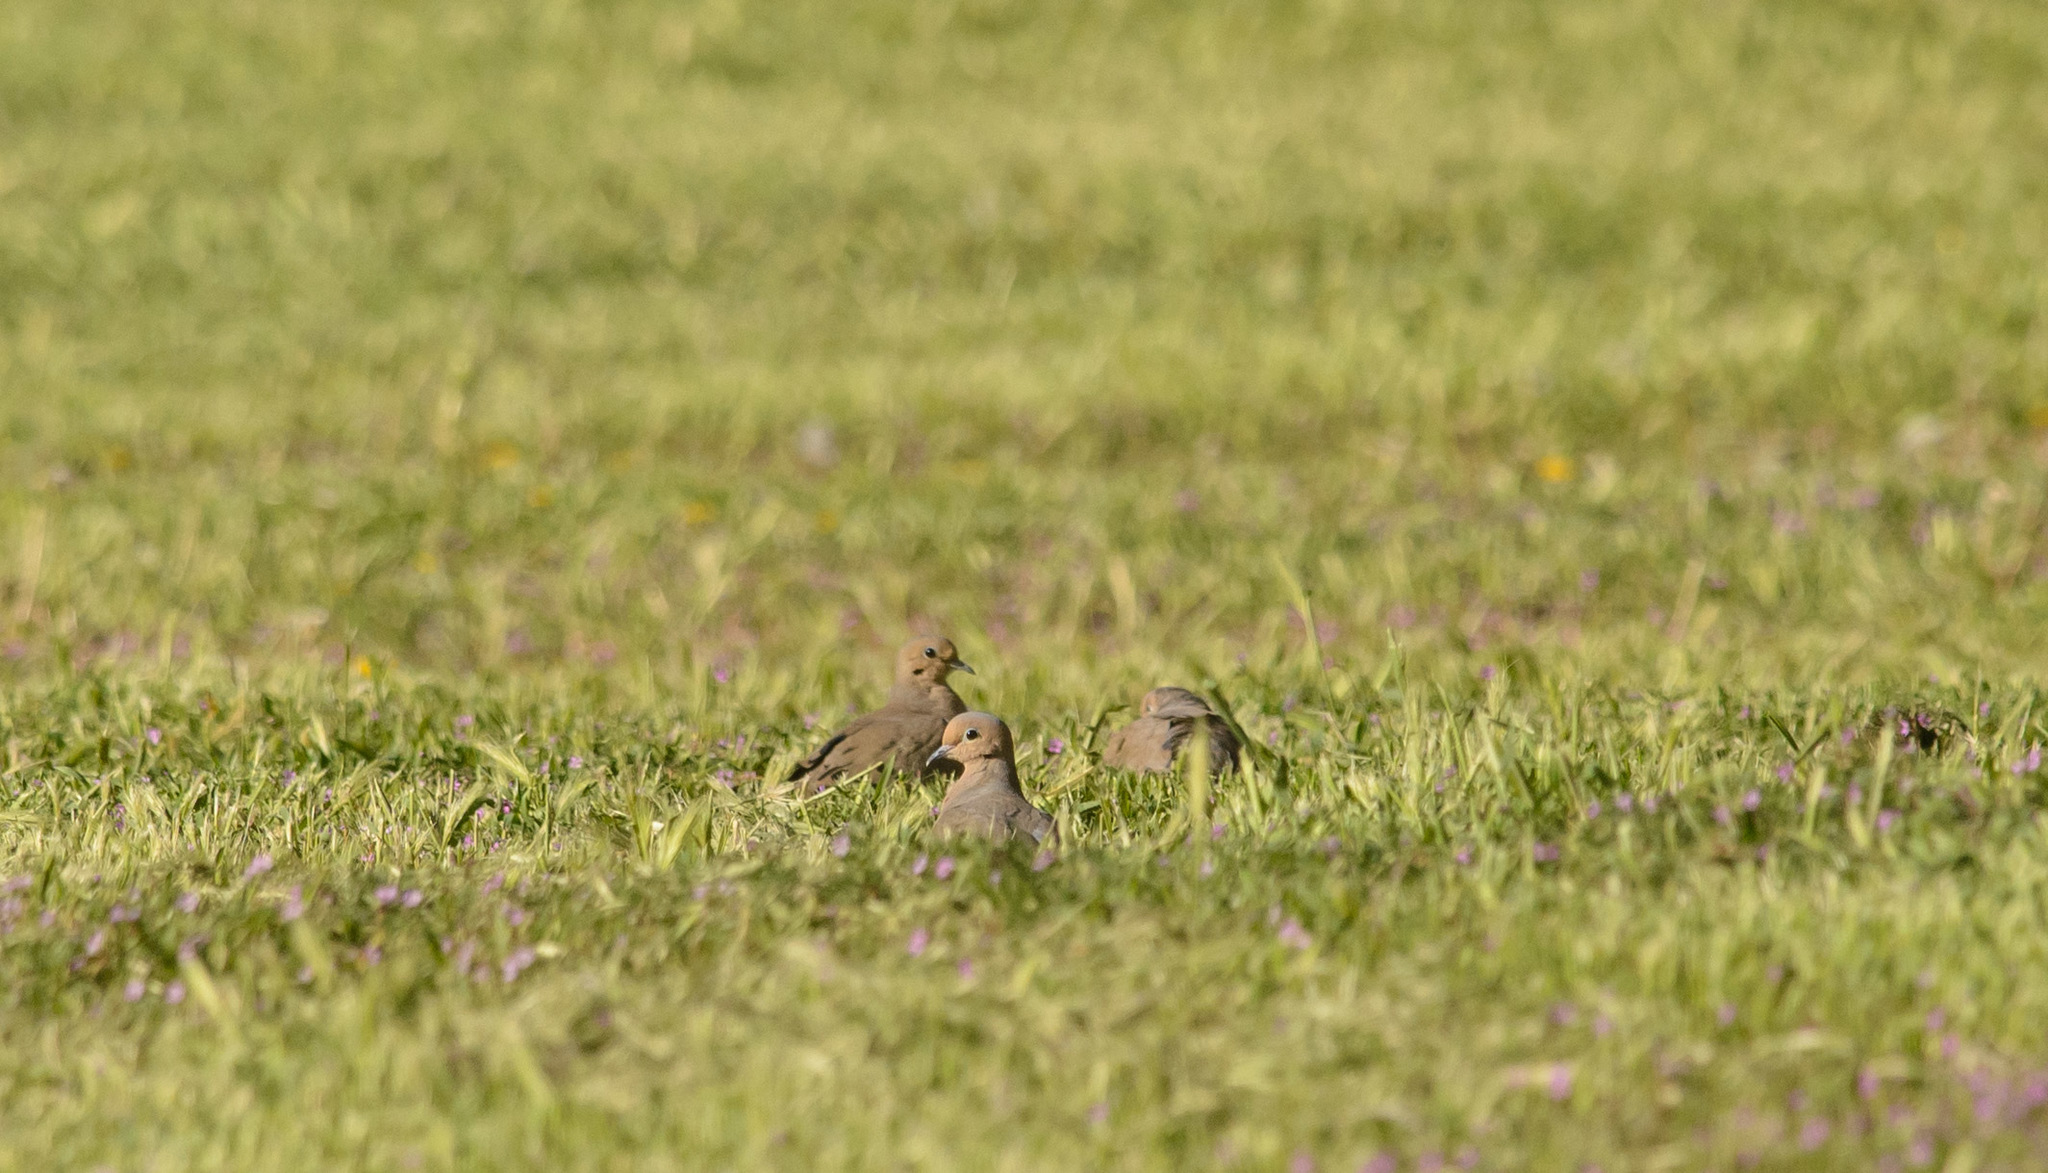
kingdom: Animalia
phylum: Chordata
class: Aves
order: Columbiformes
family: Columbidae
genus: Zenaida
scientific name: Zenaida macroura
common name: Mourning dove
